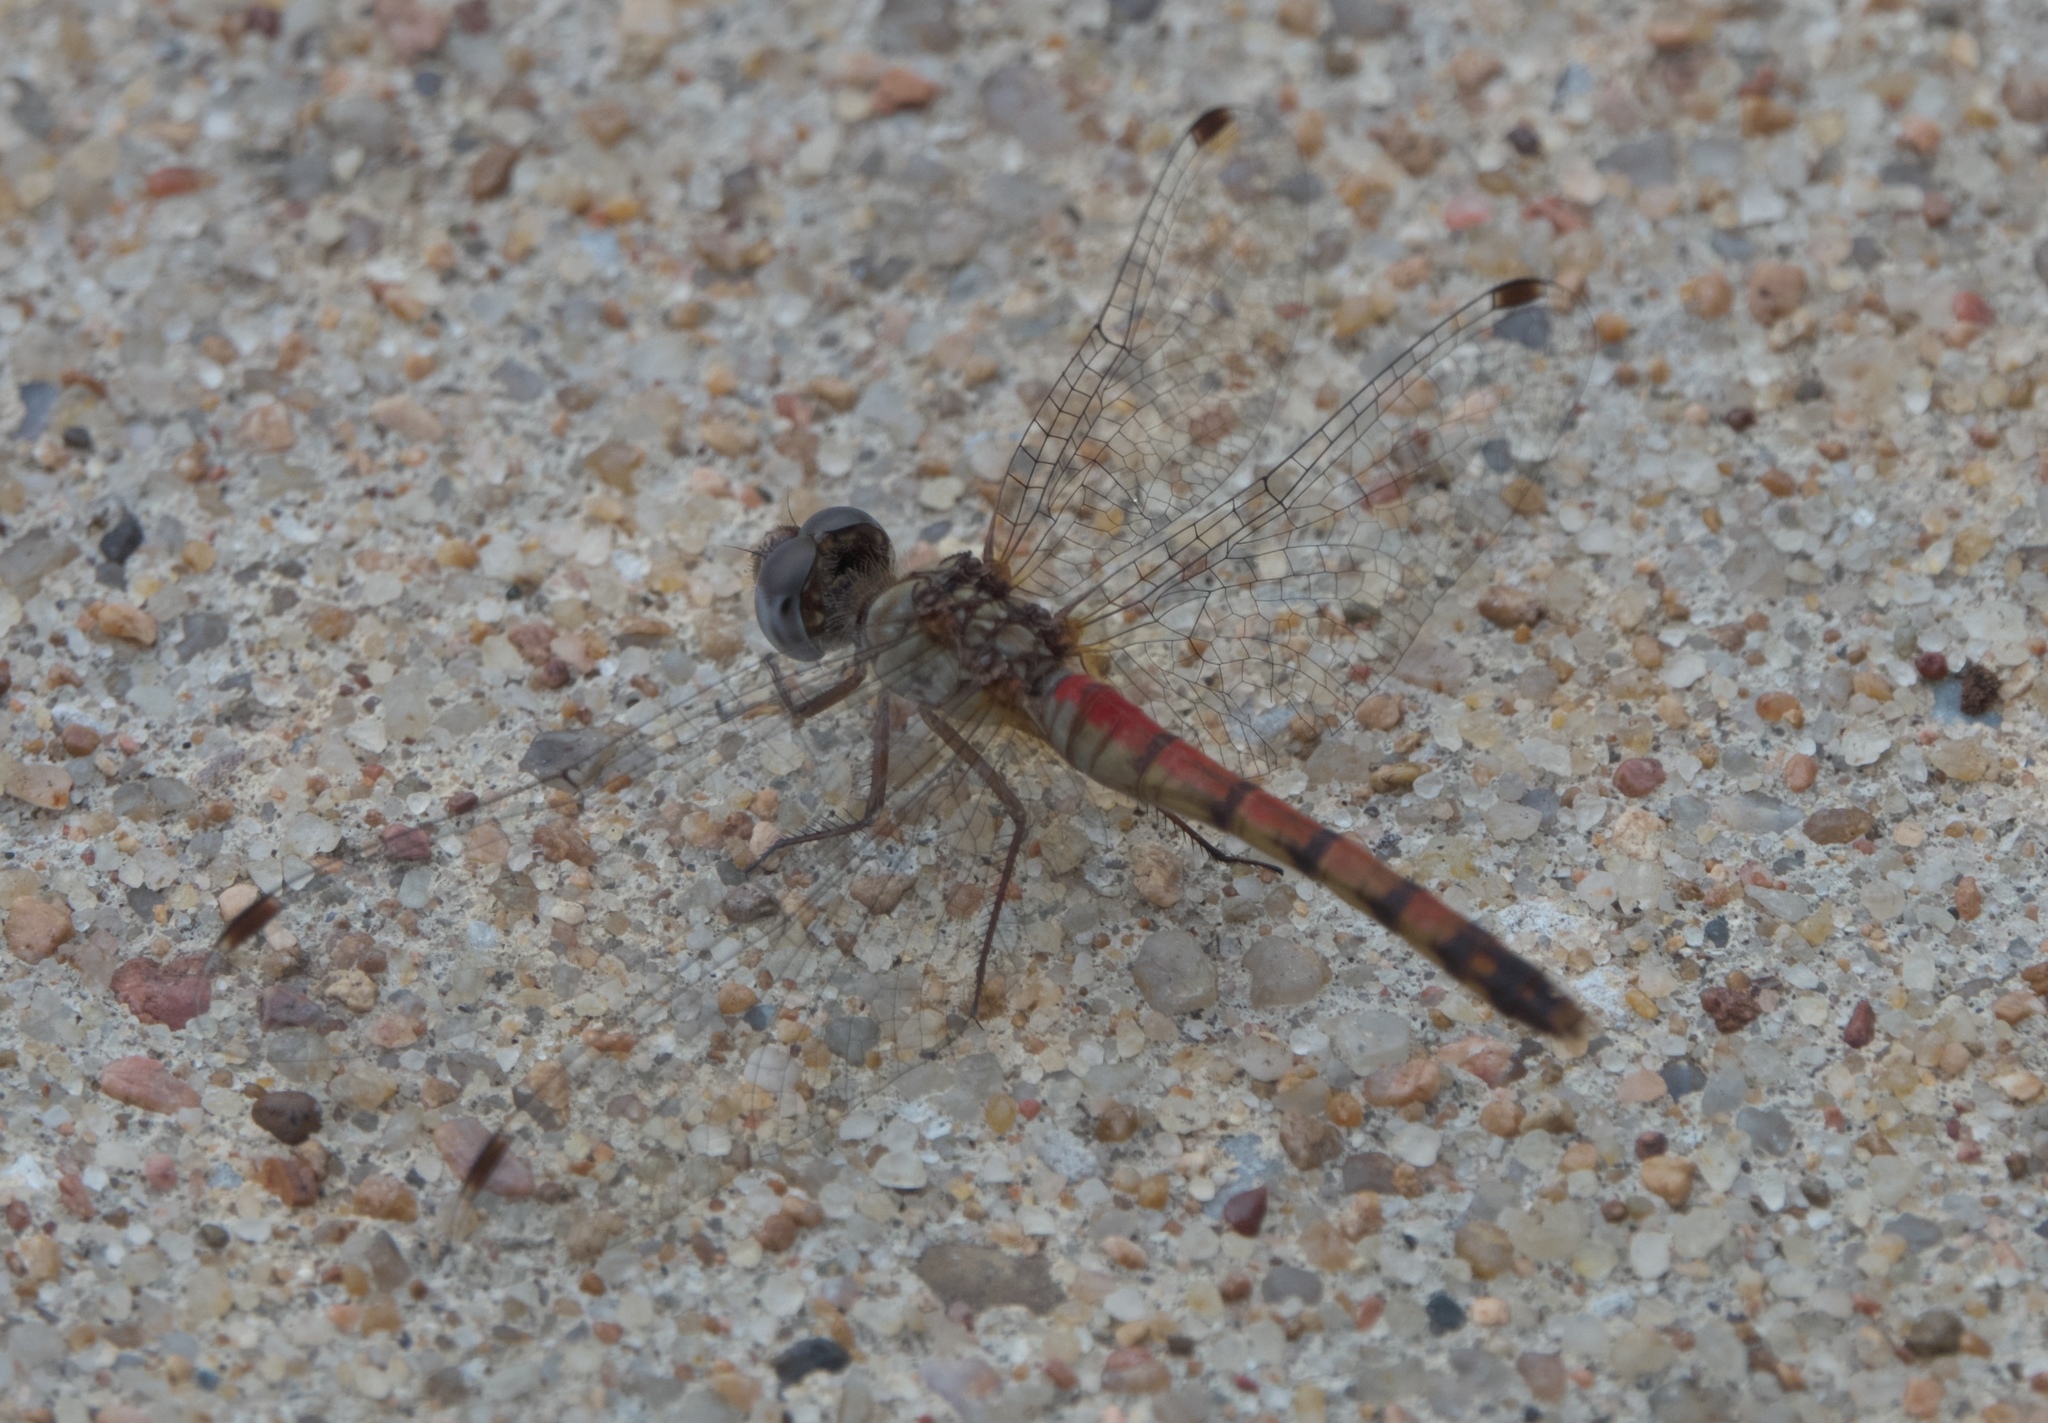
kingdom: Animalia
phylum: Arthropoda
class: Insecta
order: Odonata
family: Libellulidae
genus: Sympetrum
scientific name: Sympetrum ambiguum
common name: Blue-faced meadowhawk
